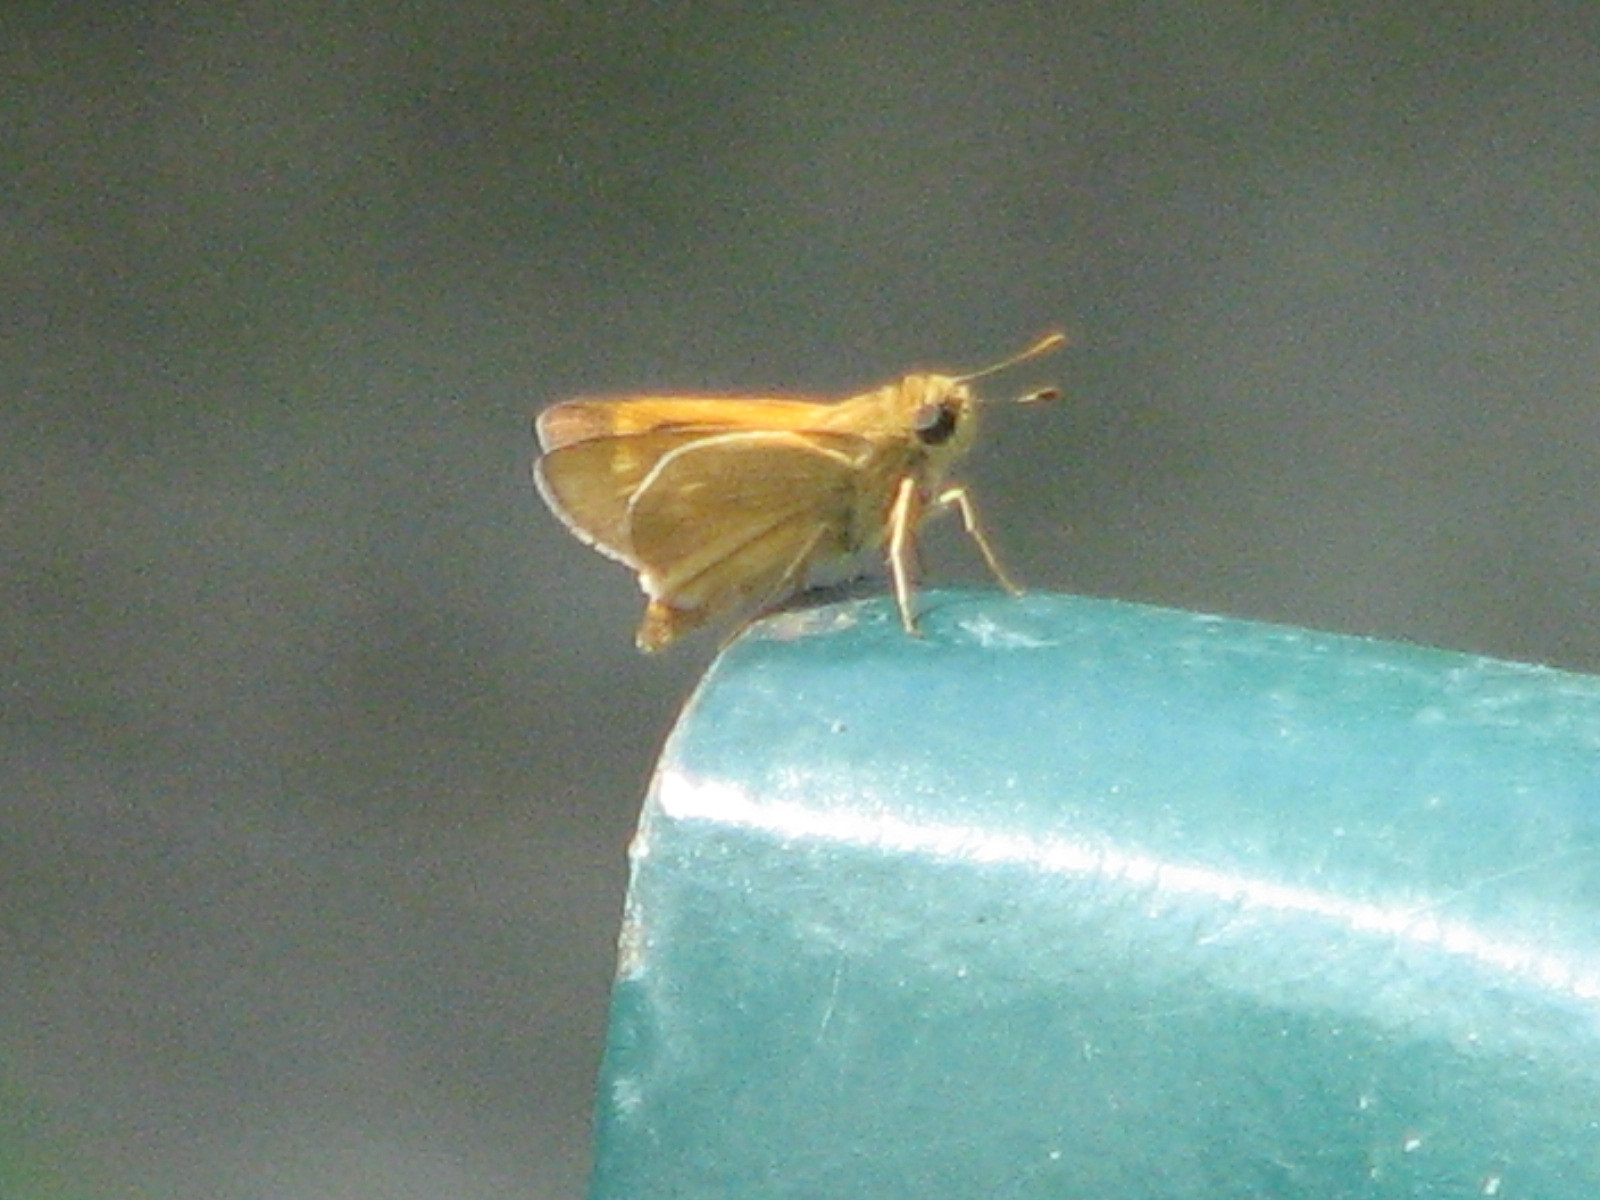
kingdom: Animalia
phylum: Arthropoda
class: Insecta
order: Lepidoptera
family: Hesperiidae
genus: Mellana
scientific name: Mellana eulogius
